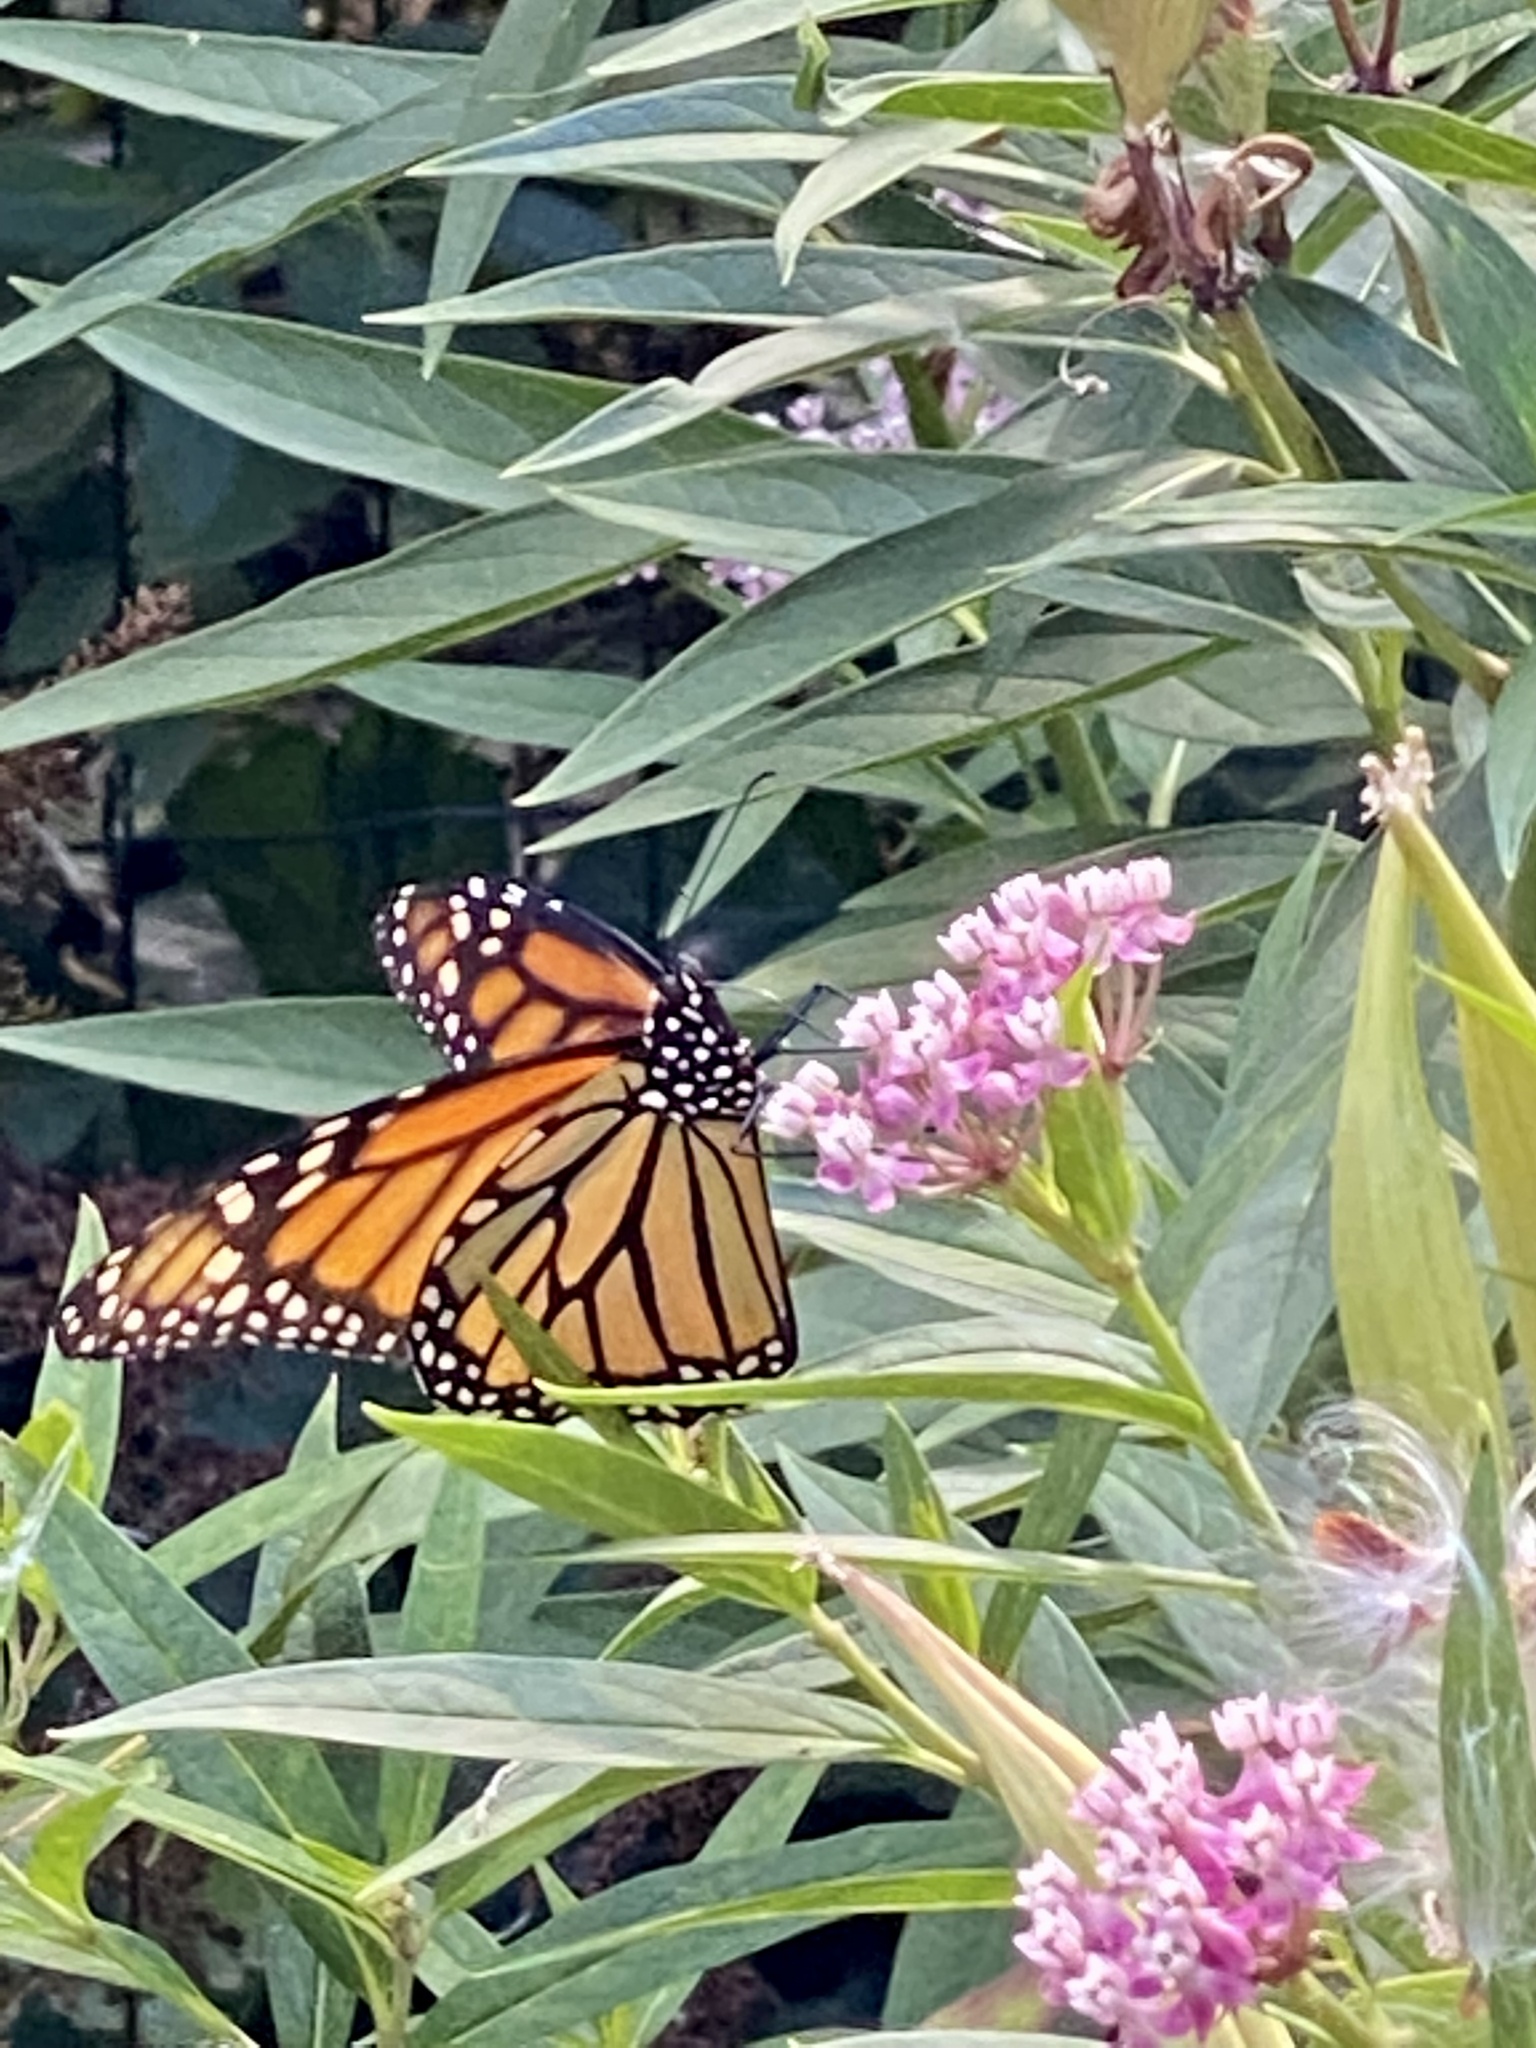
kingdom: Animalia
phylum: Arthropoda
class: Insecta
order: Lepidoptera
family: Nymphalidae
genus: Danaus
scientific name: Danaus plexippus
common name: Monarch
